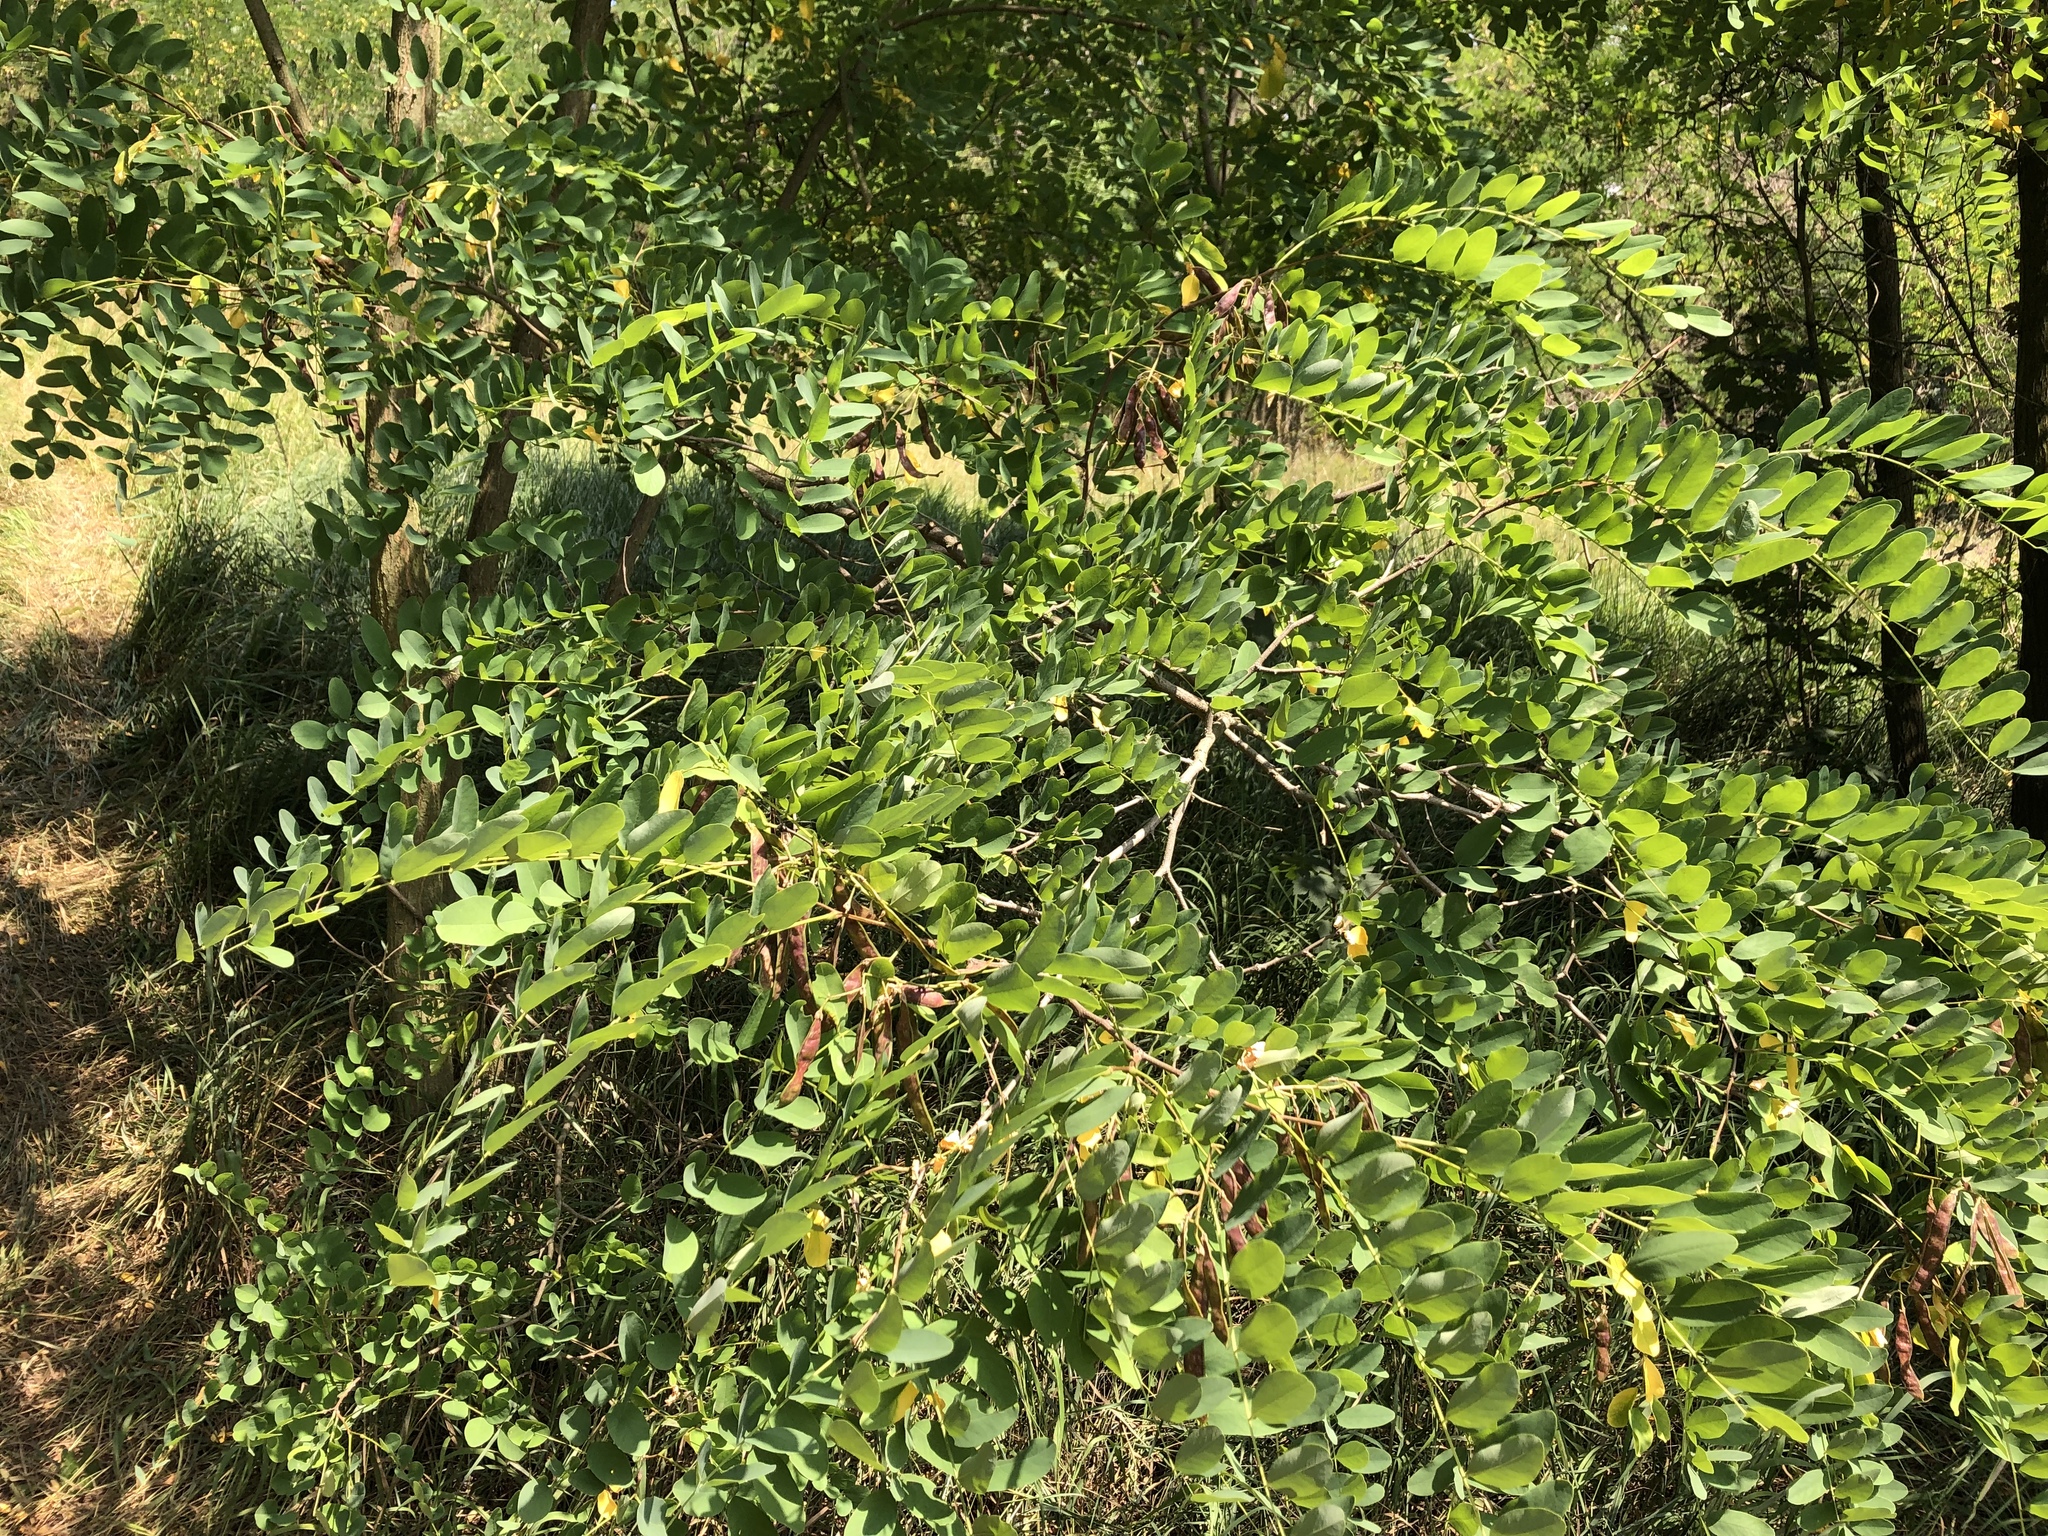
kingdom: Plantae
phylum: Tracheophyta
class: Magnoliopsida
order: Fabales
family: Fabaceae
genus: Robinia
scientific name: Robinia pseudoacacia
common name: Black locust
